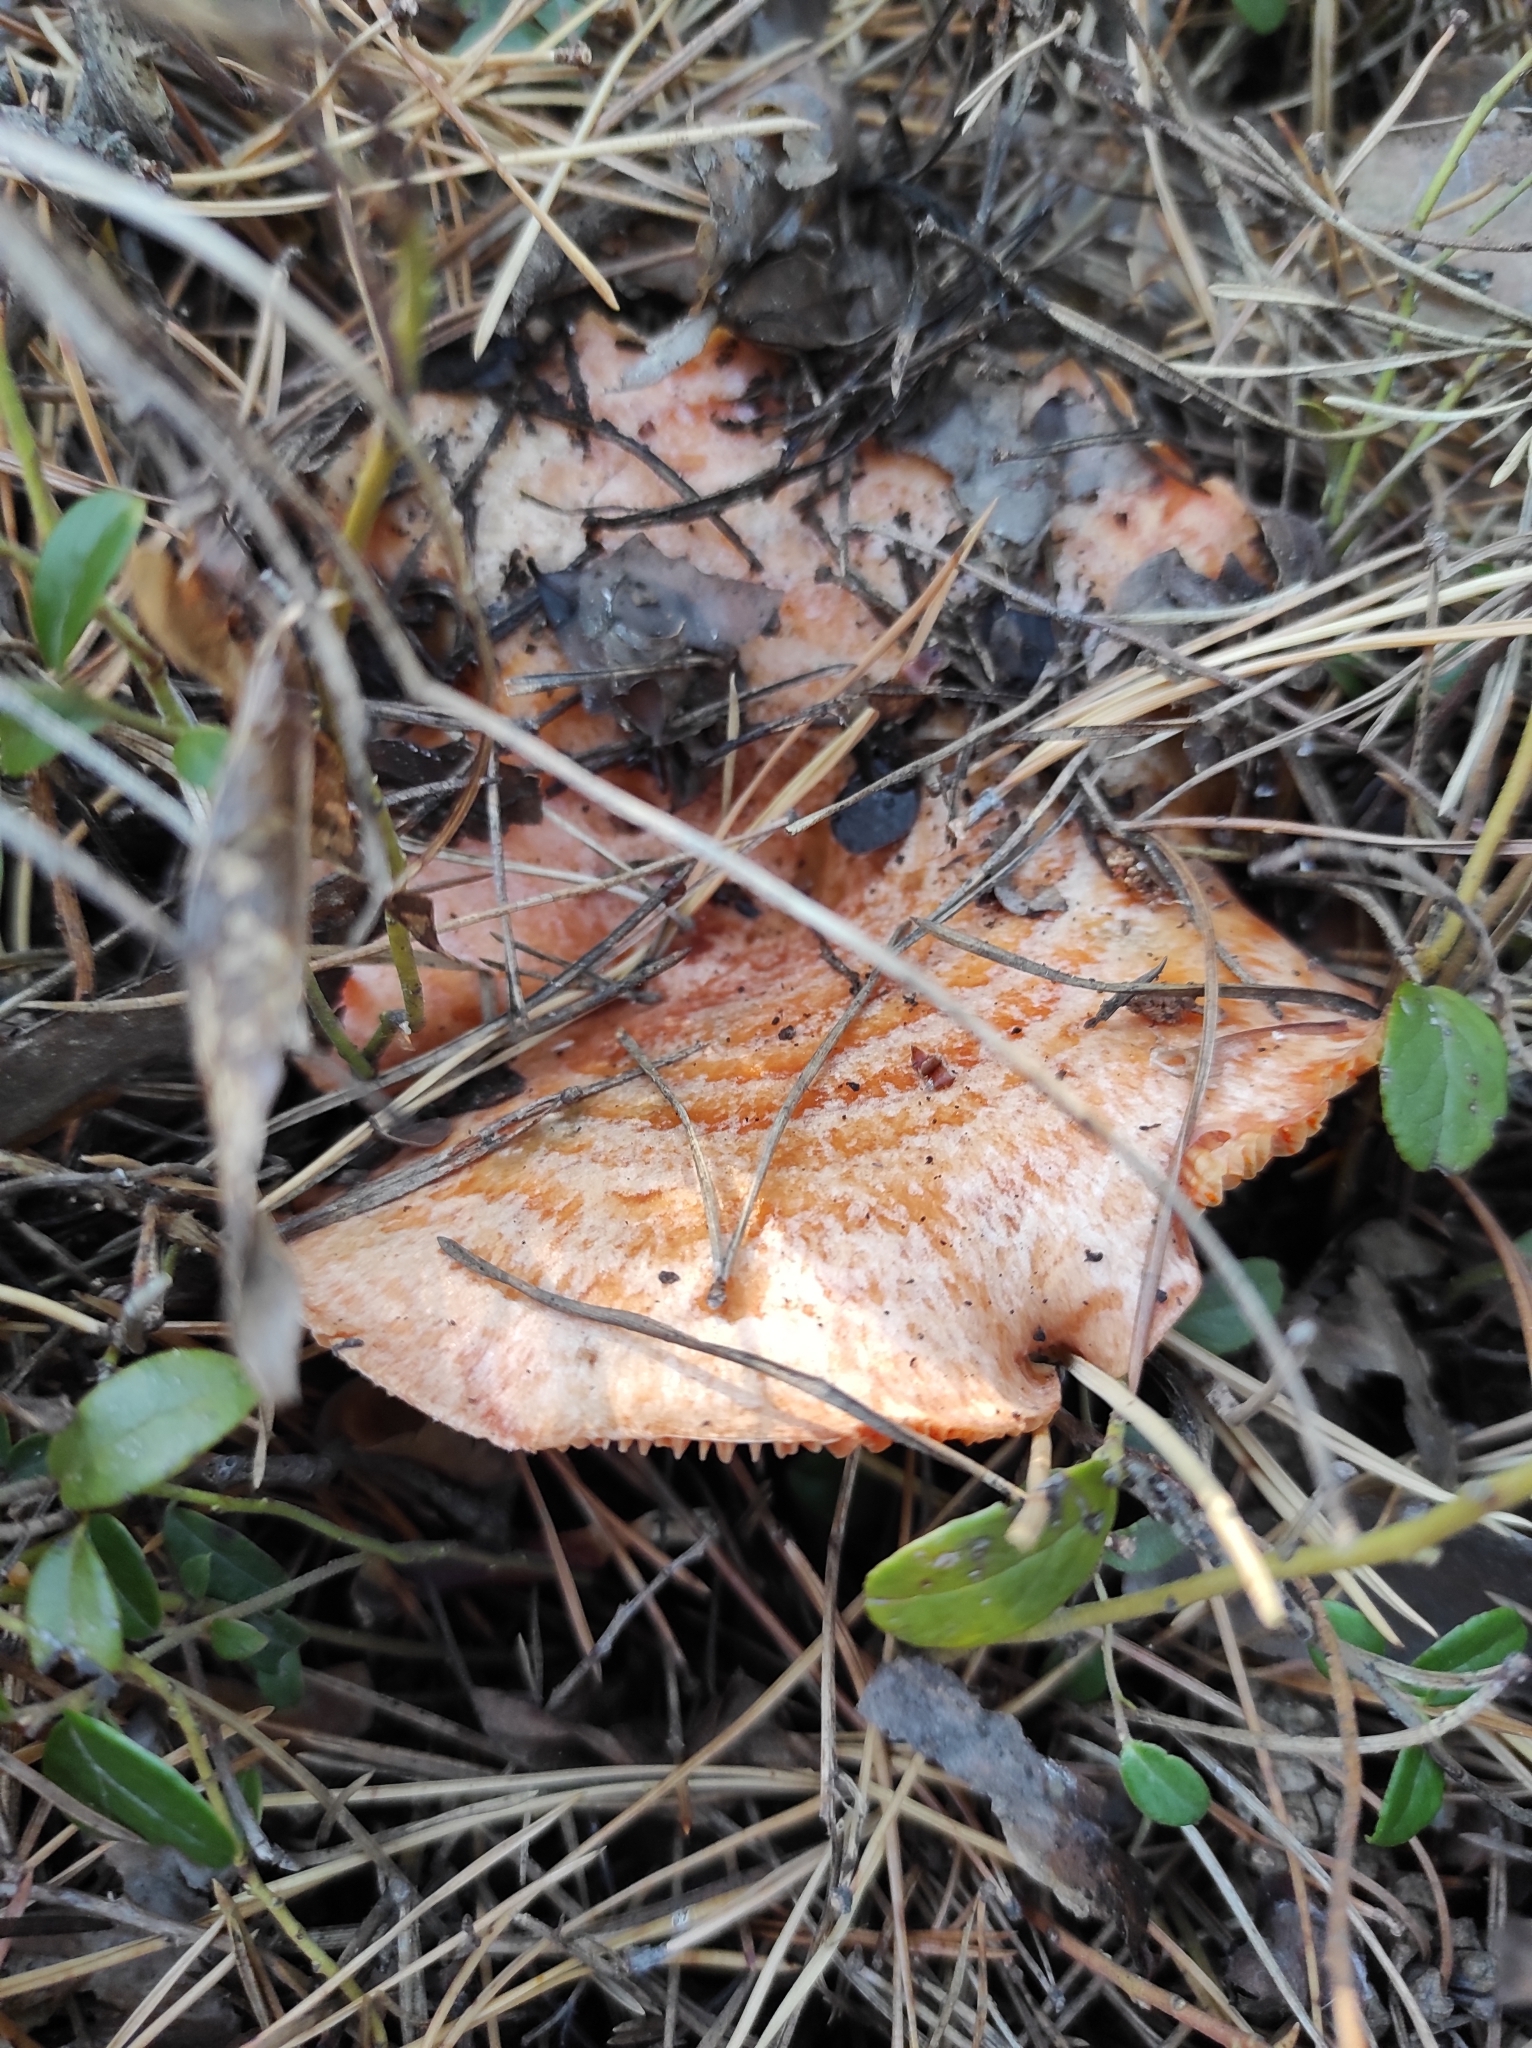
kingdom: Fungi
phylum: Basidiomycota
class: Agaricomycetes
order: Russulales
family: Russulaceae
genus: Lactarius
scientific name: Lactarius deliciosus
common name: Saffron milk-cap
